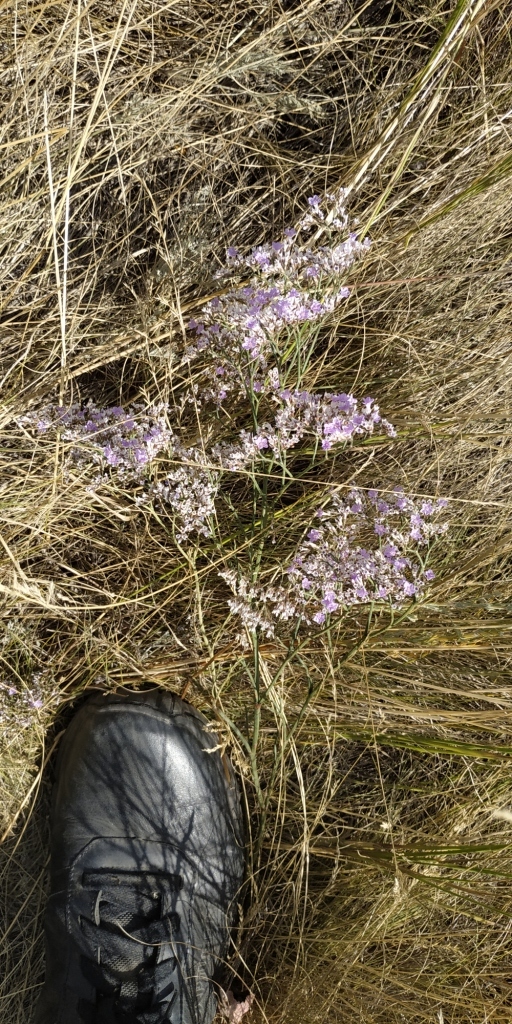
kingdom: Plantae
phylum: Tracheophyta
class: Magnoliopsida
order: Caryophyllales
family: Plumbaginaceae
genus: Limonium
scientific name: Limonium gmelini
